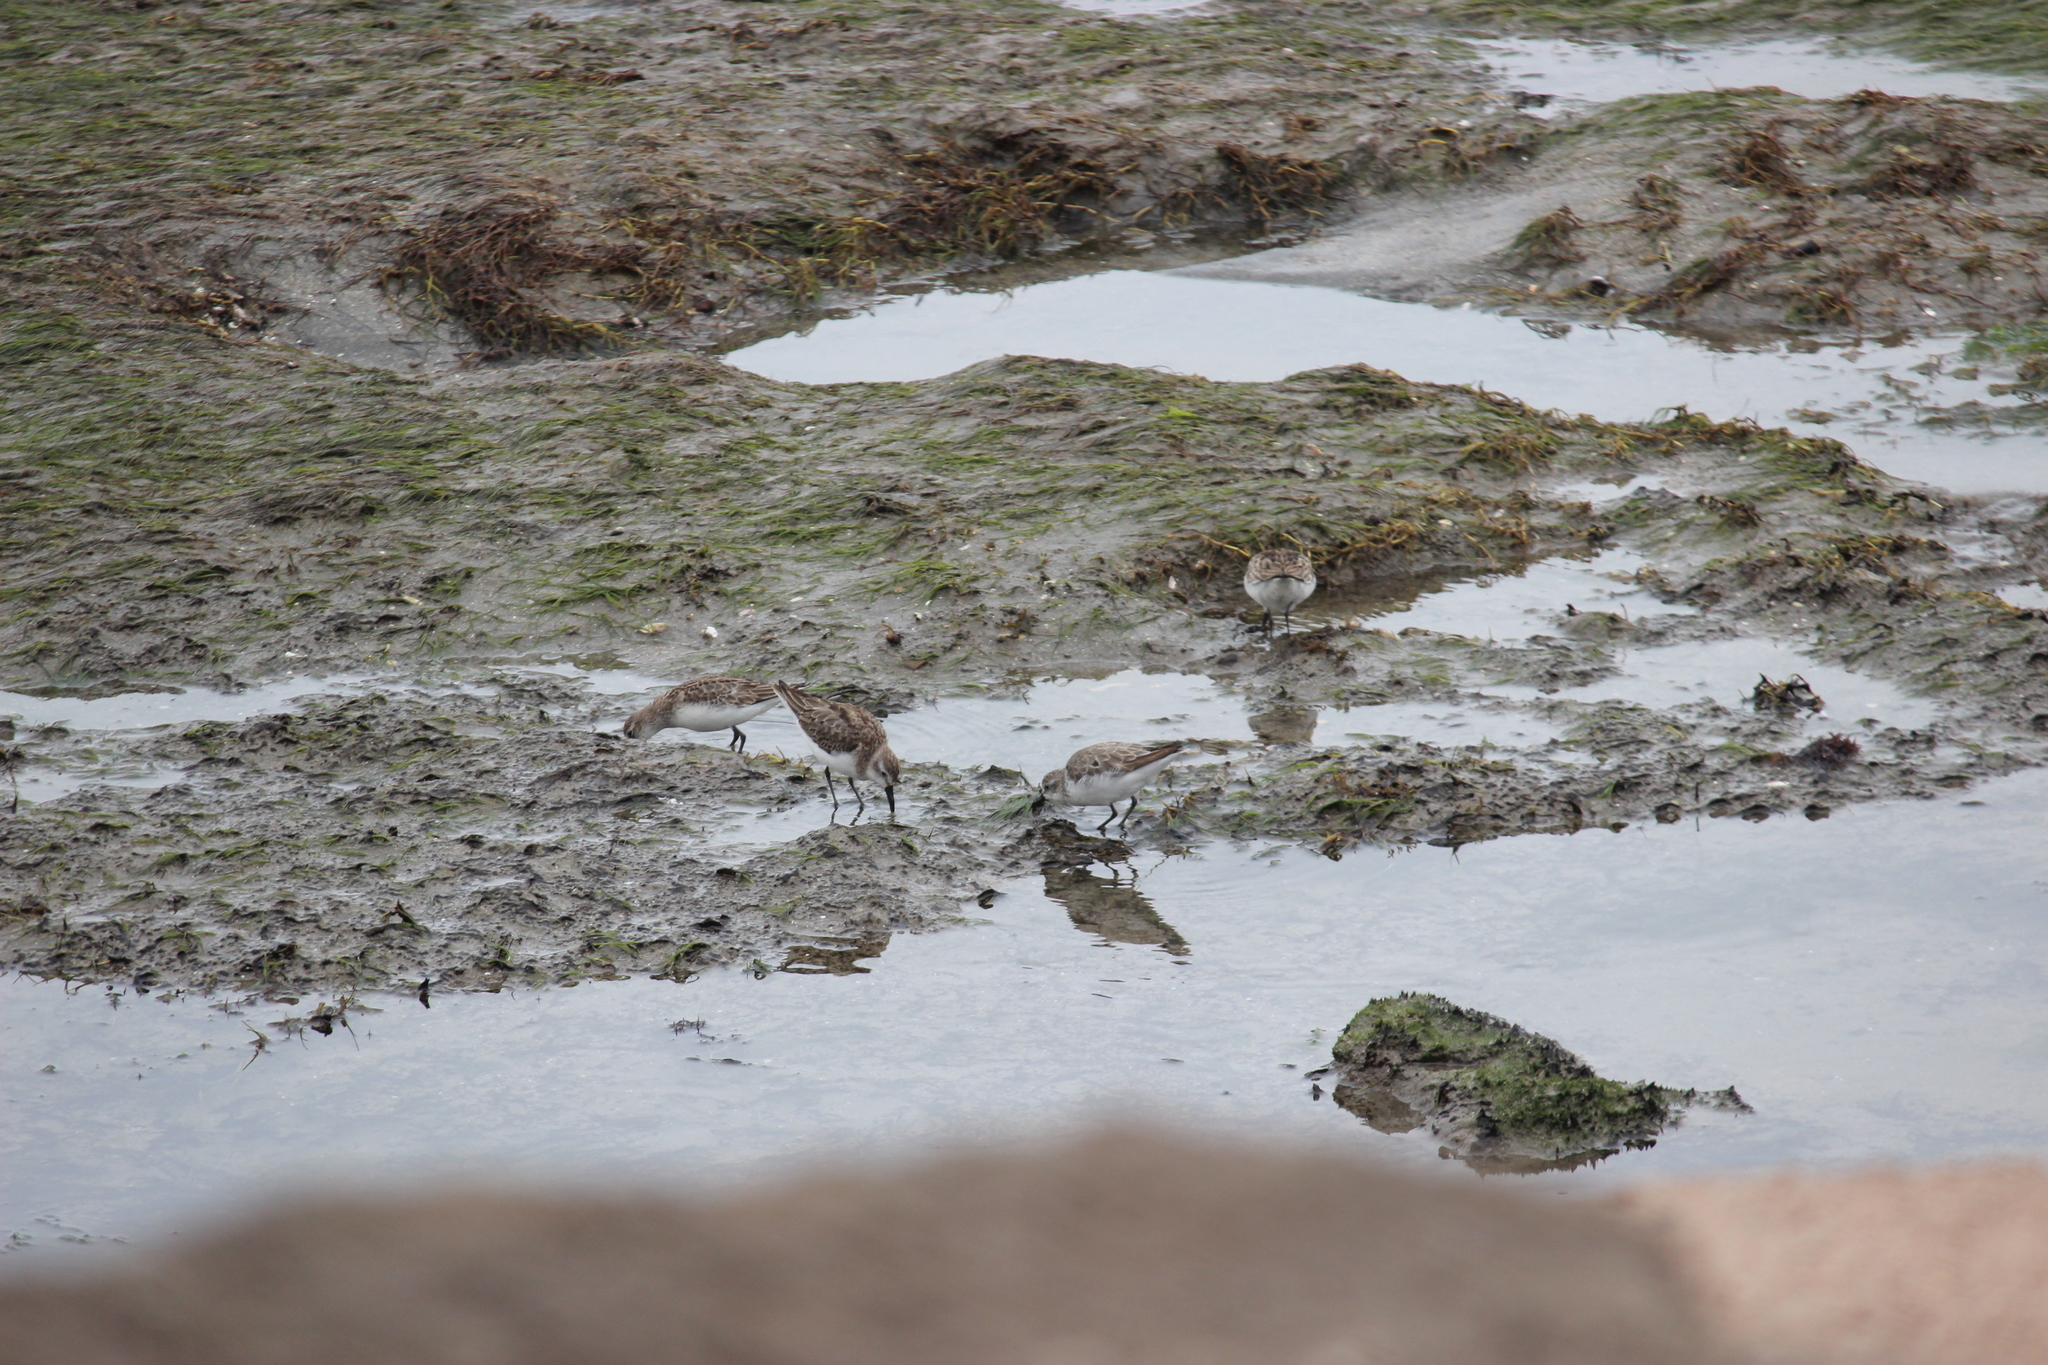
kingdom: Animalia
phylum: Chordata
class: Aves
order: Charadriiformes
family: Scolopacidae
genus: Calidris
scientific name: Calidris pusilla
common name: Semipalmated sandpiper
